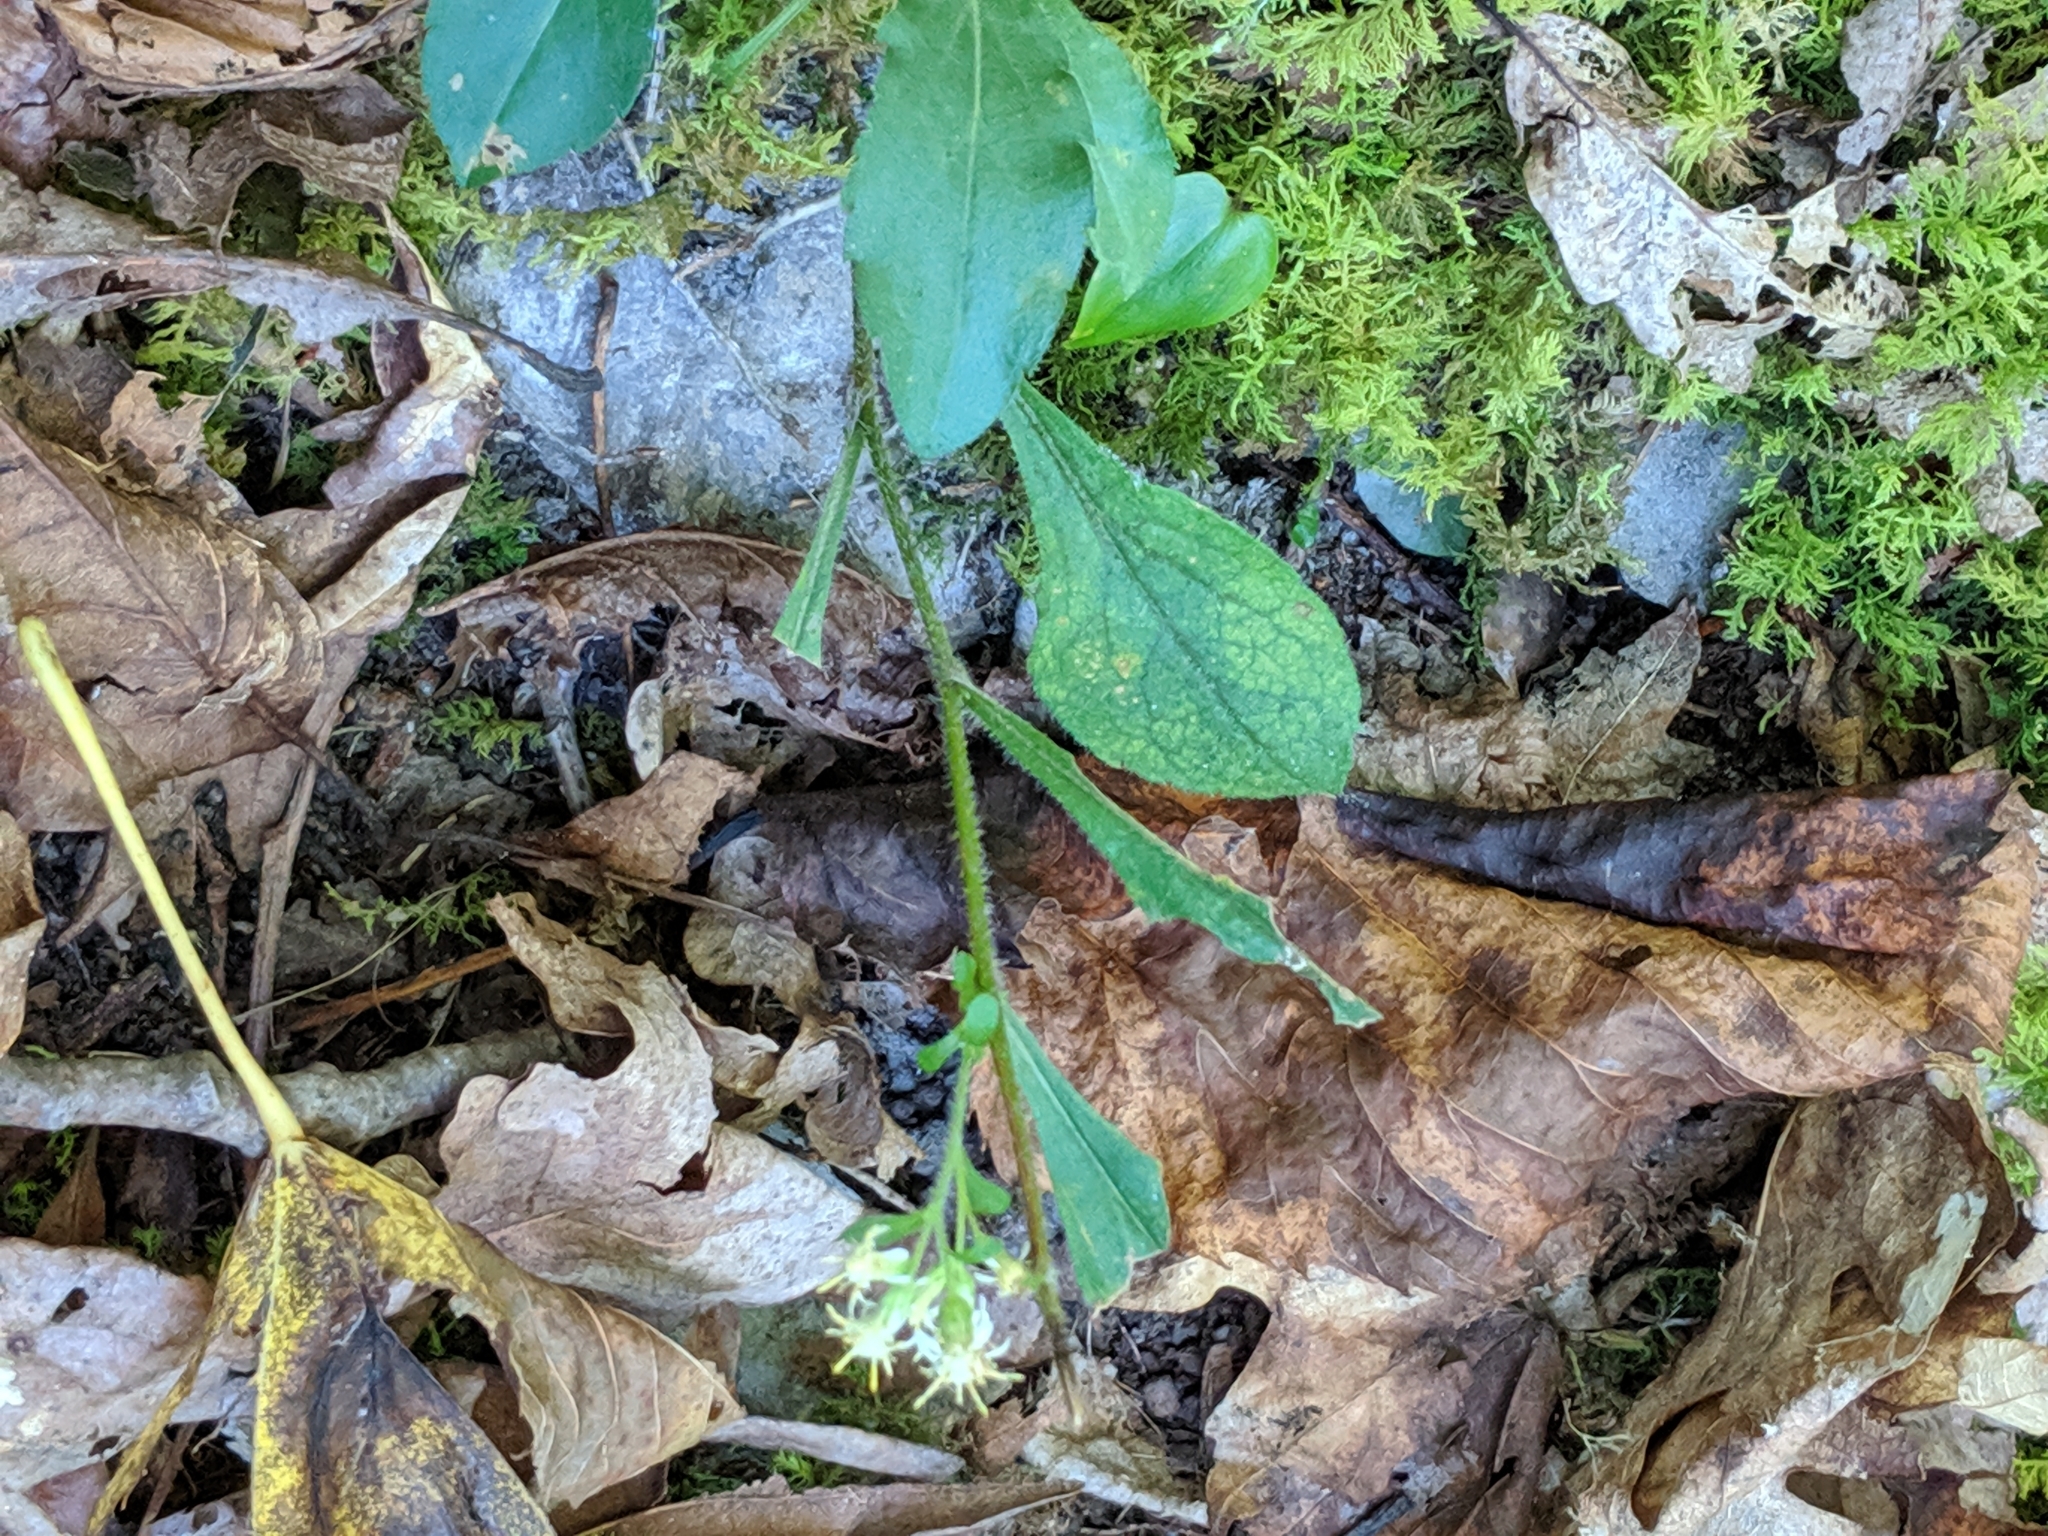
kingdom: Plantae
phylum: Tracheophyta
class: Magnoliopsida
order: Asterales
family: Asteraceae
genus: Solidago
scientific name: Solidago bicolor
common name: Silverrod
